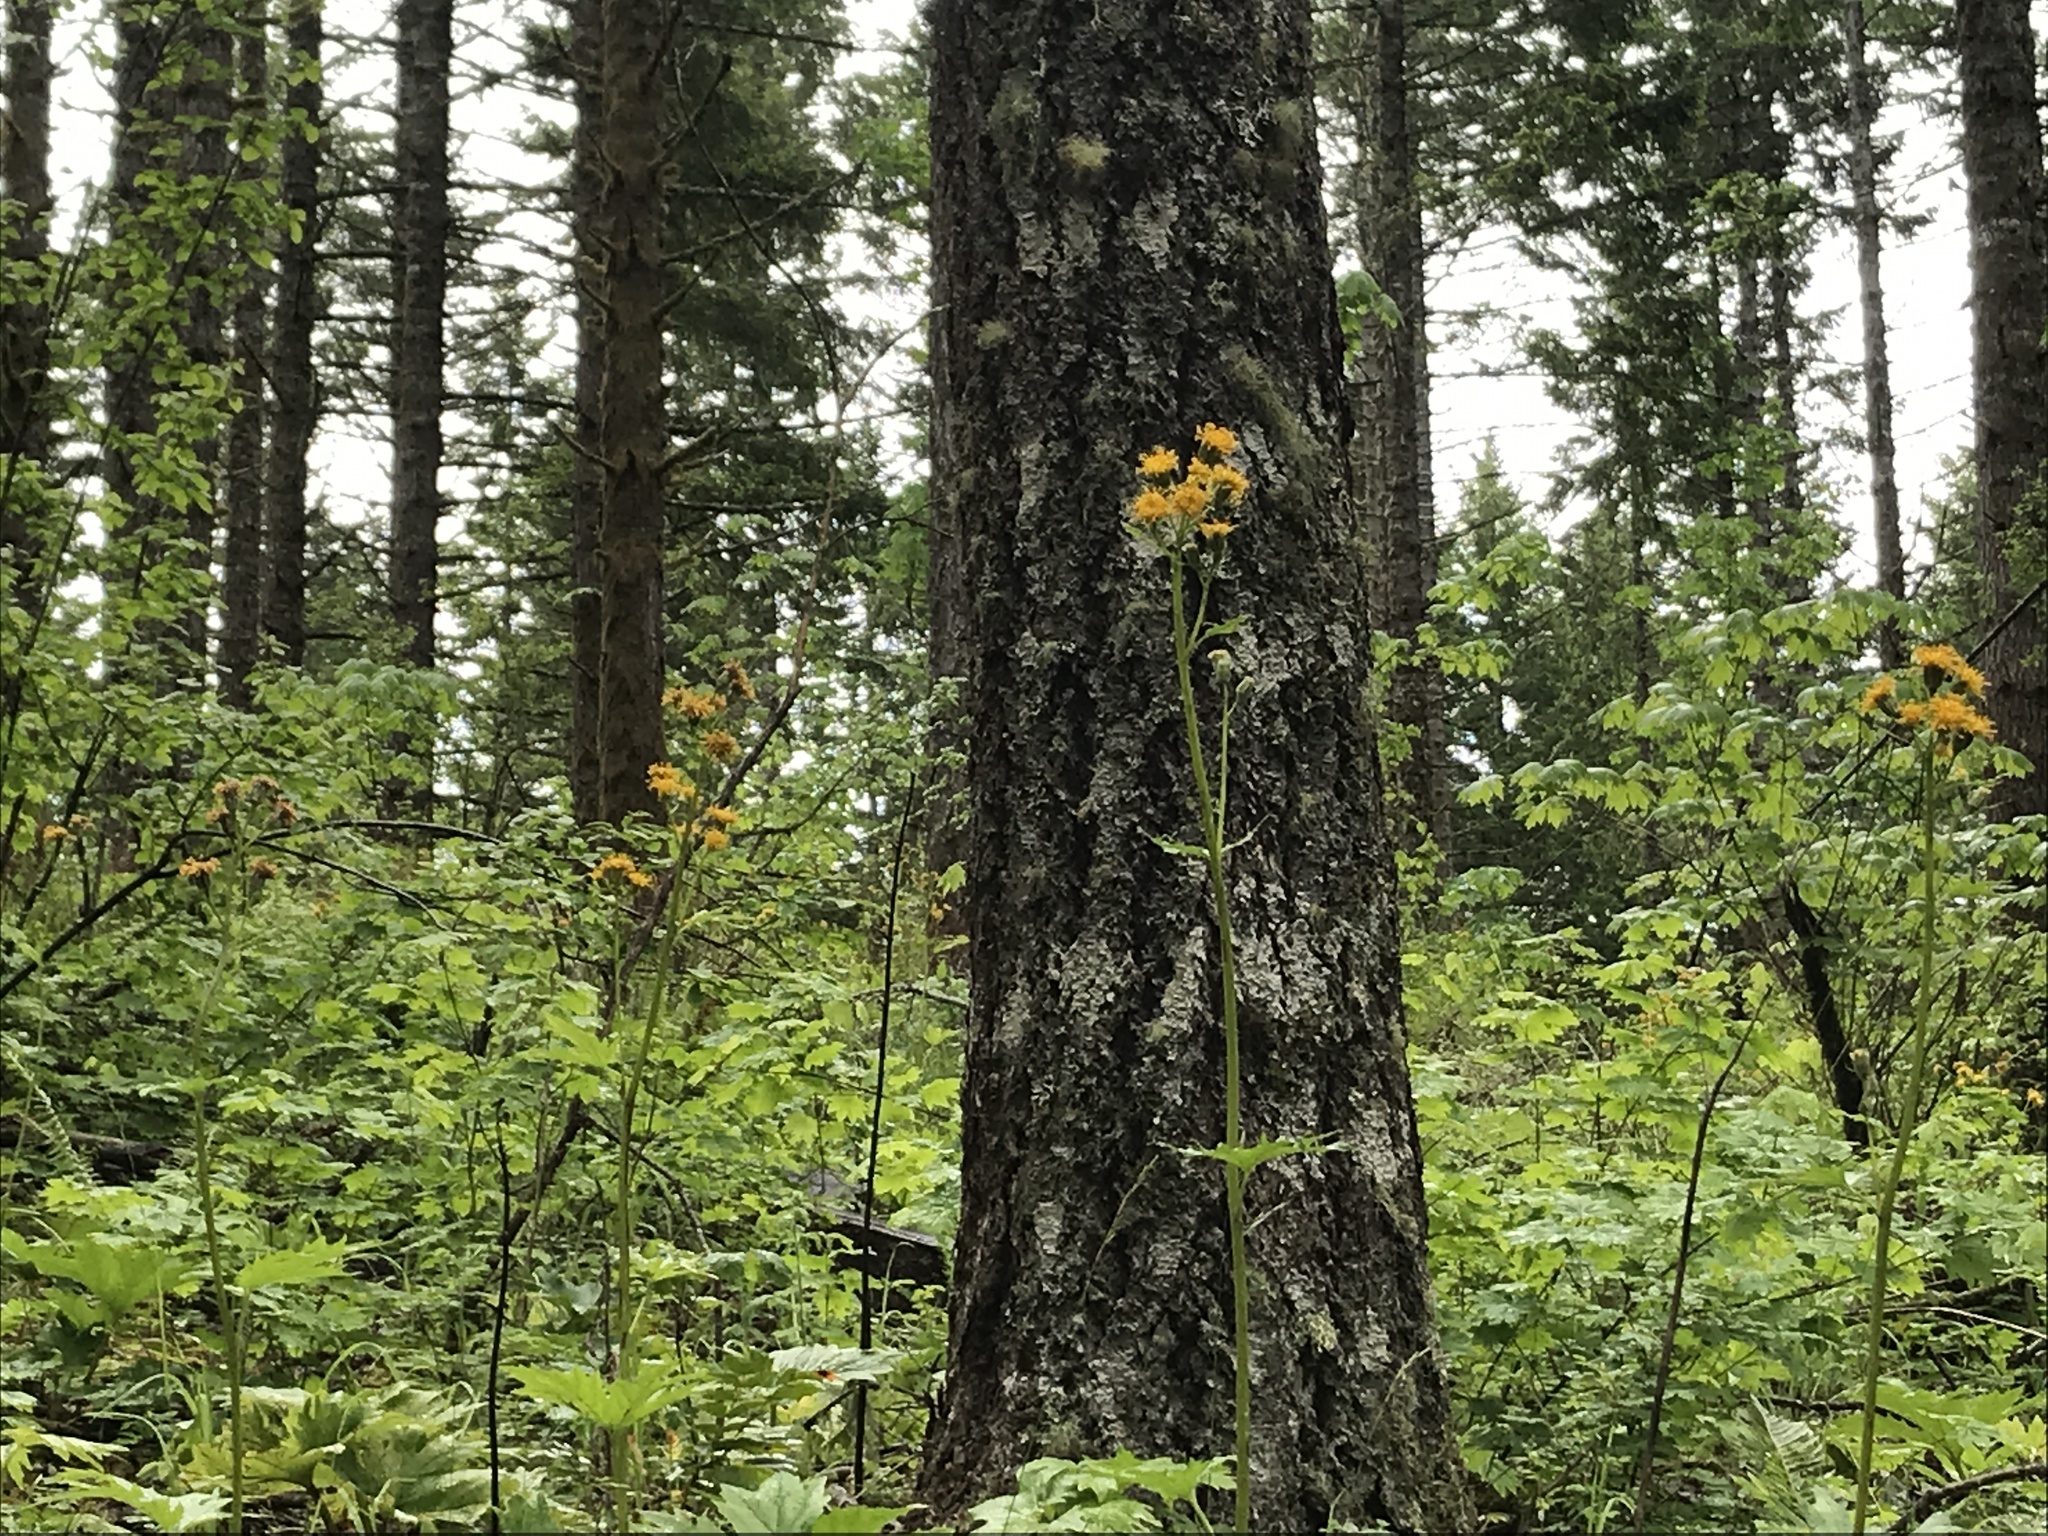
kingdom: Plantae
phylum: Tracheophyta
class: Magnoliopsida
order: Asterales
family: Asteraceae
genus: Cacaliopsis
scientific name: Cacaliopsis nardosmia
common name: Silvercrown
